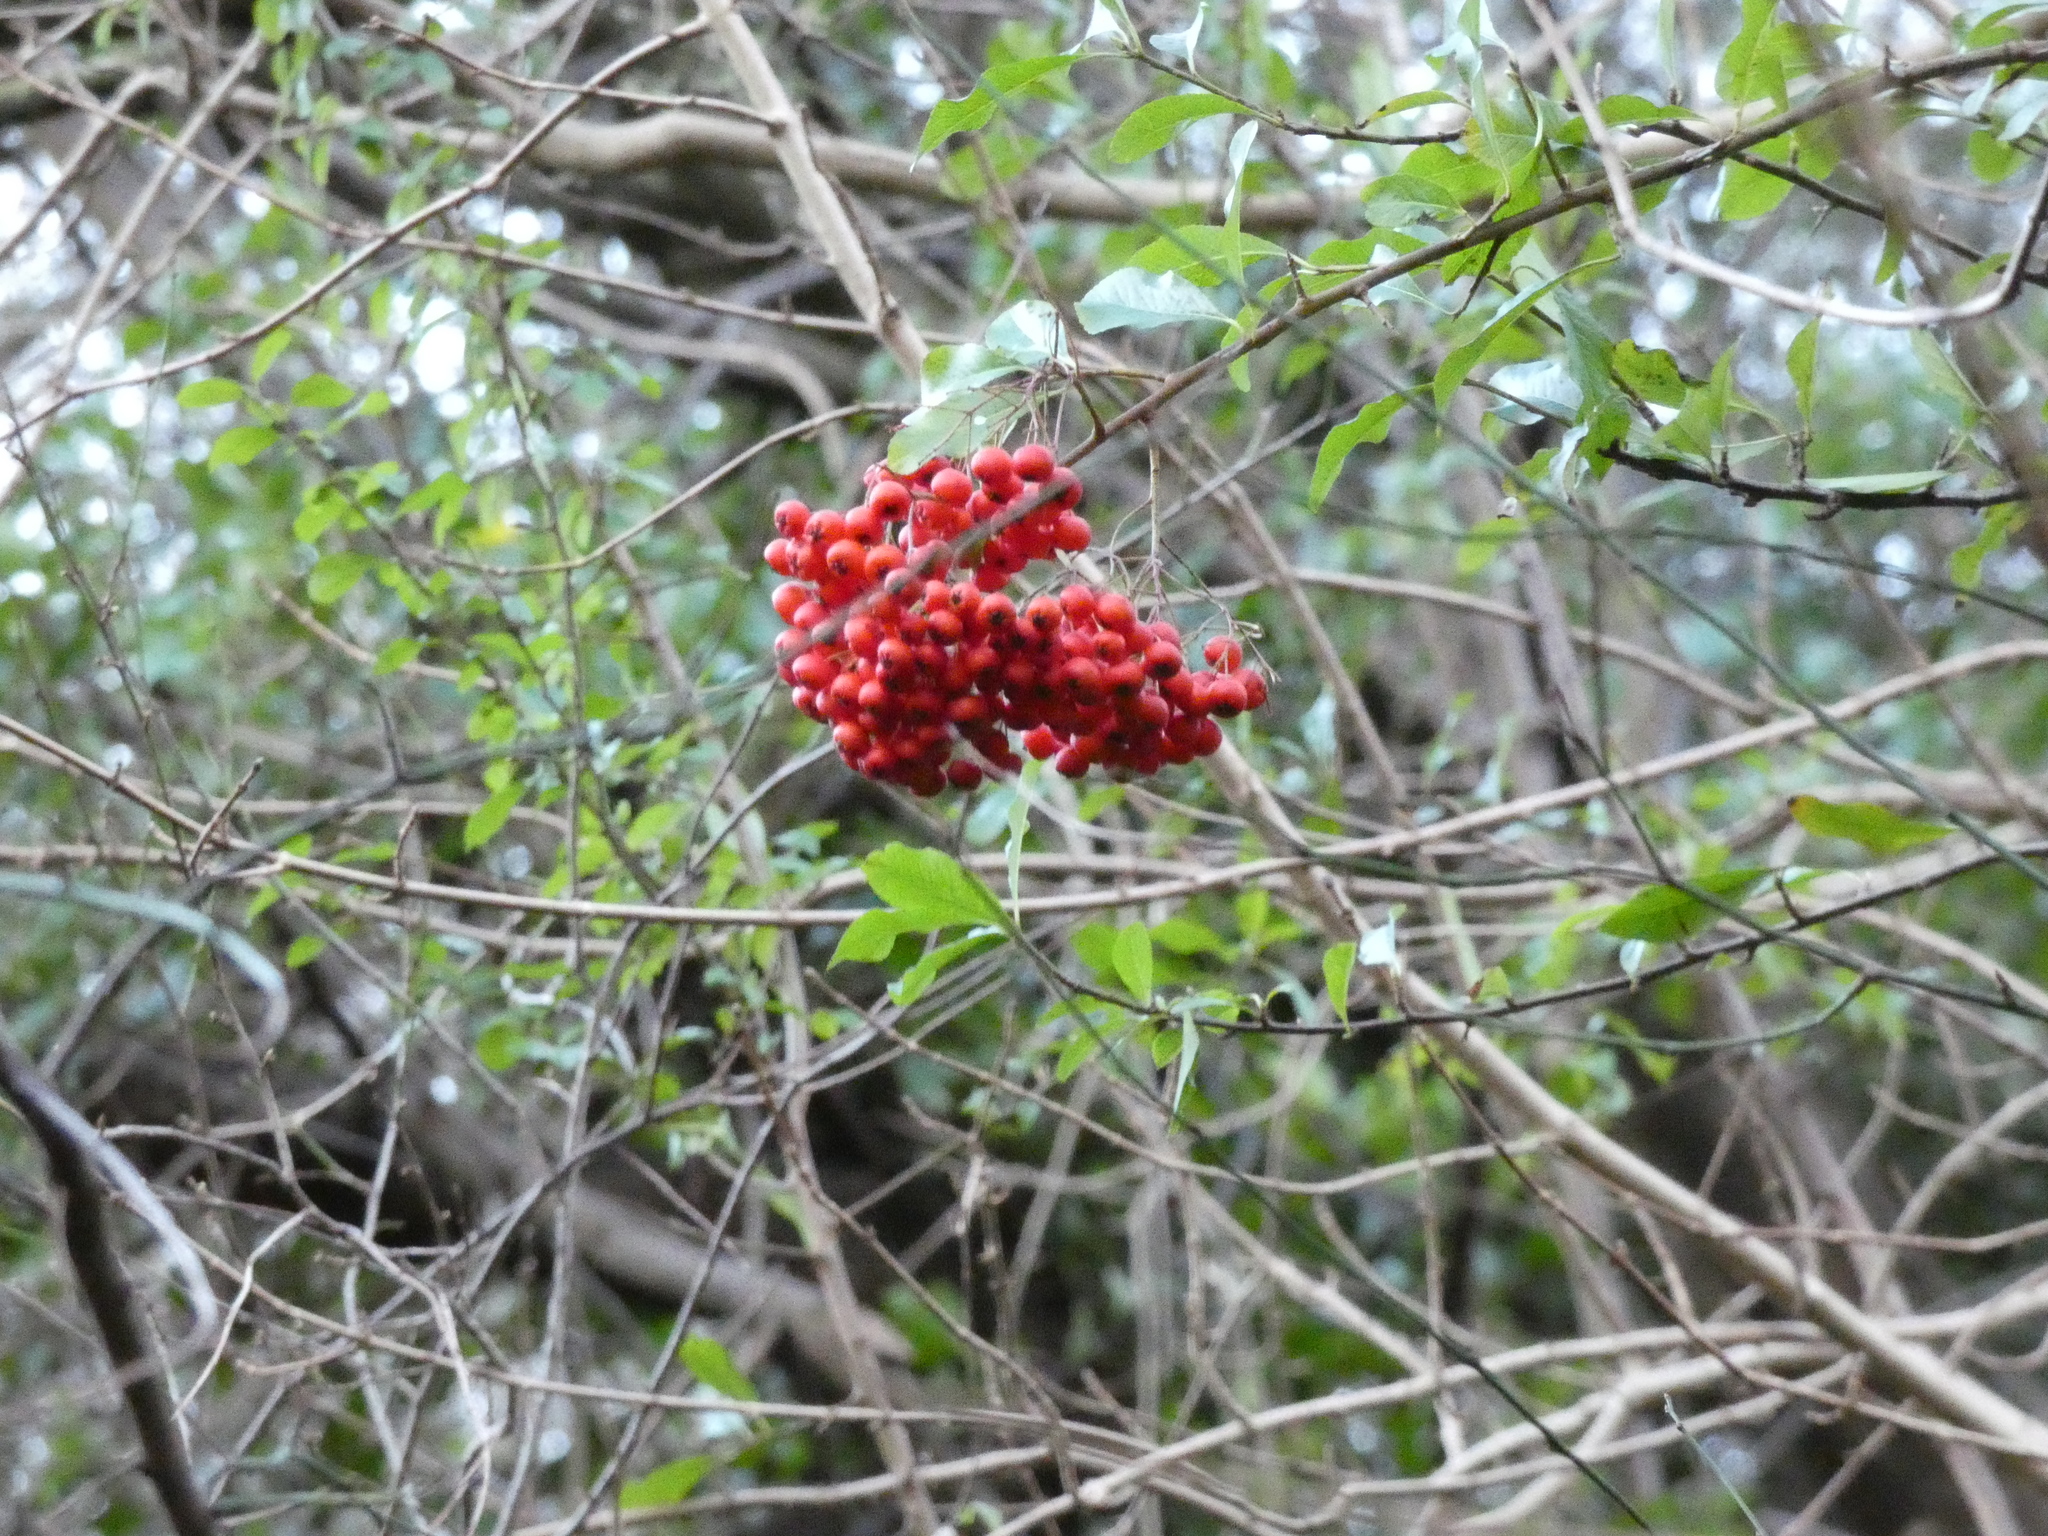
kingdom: Plantae
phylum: Tracheophyta
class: Magnoliopsida
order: Rosales
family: Rosaceae
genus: Sorbus
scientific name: Sorbus aucuparia
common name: Rowan
